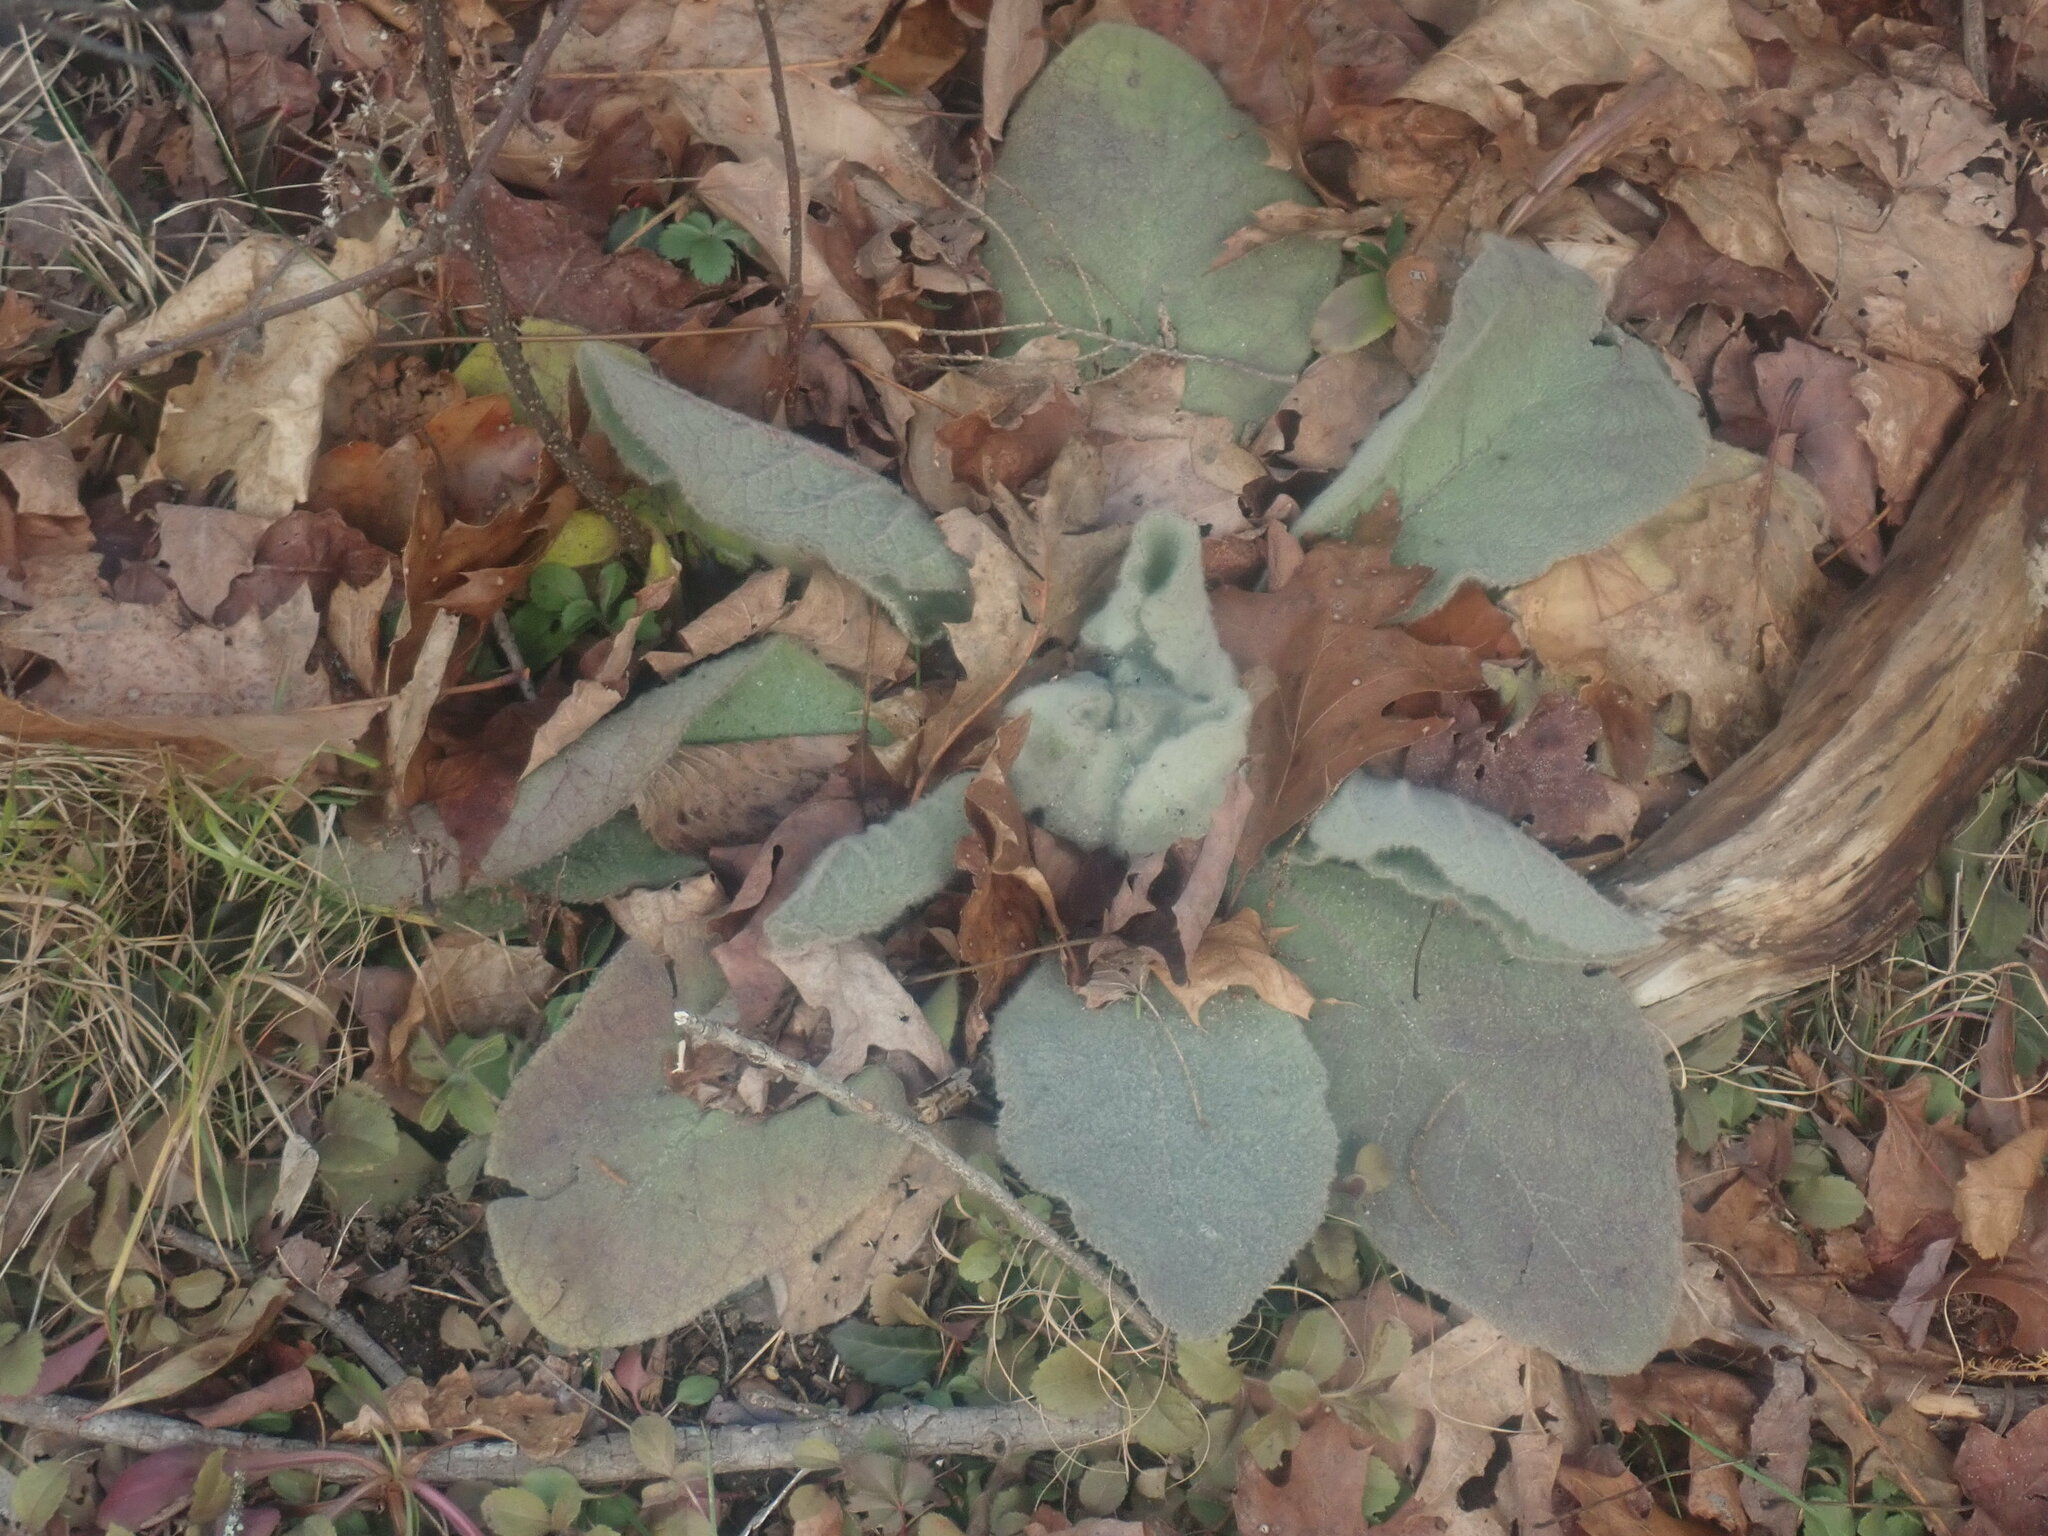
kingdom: Plantae
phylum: Tracheophyta
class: Magnoliopsida
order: Lamiales
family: Scrophulariaceae
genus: Verbascum
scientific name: Verbascum thapsus
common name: Common mullein
